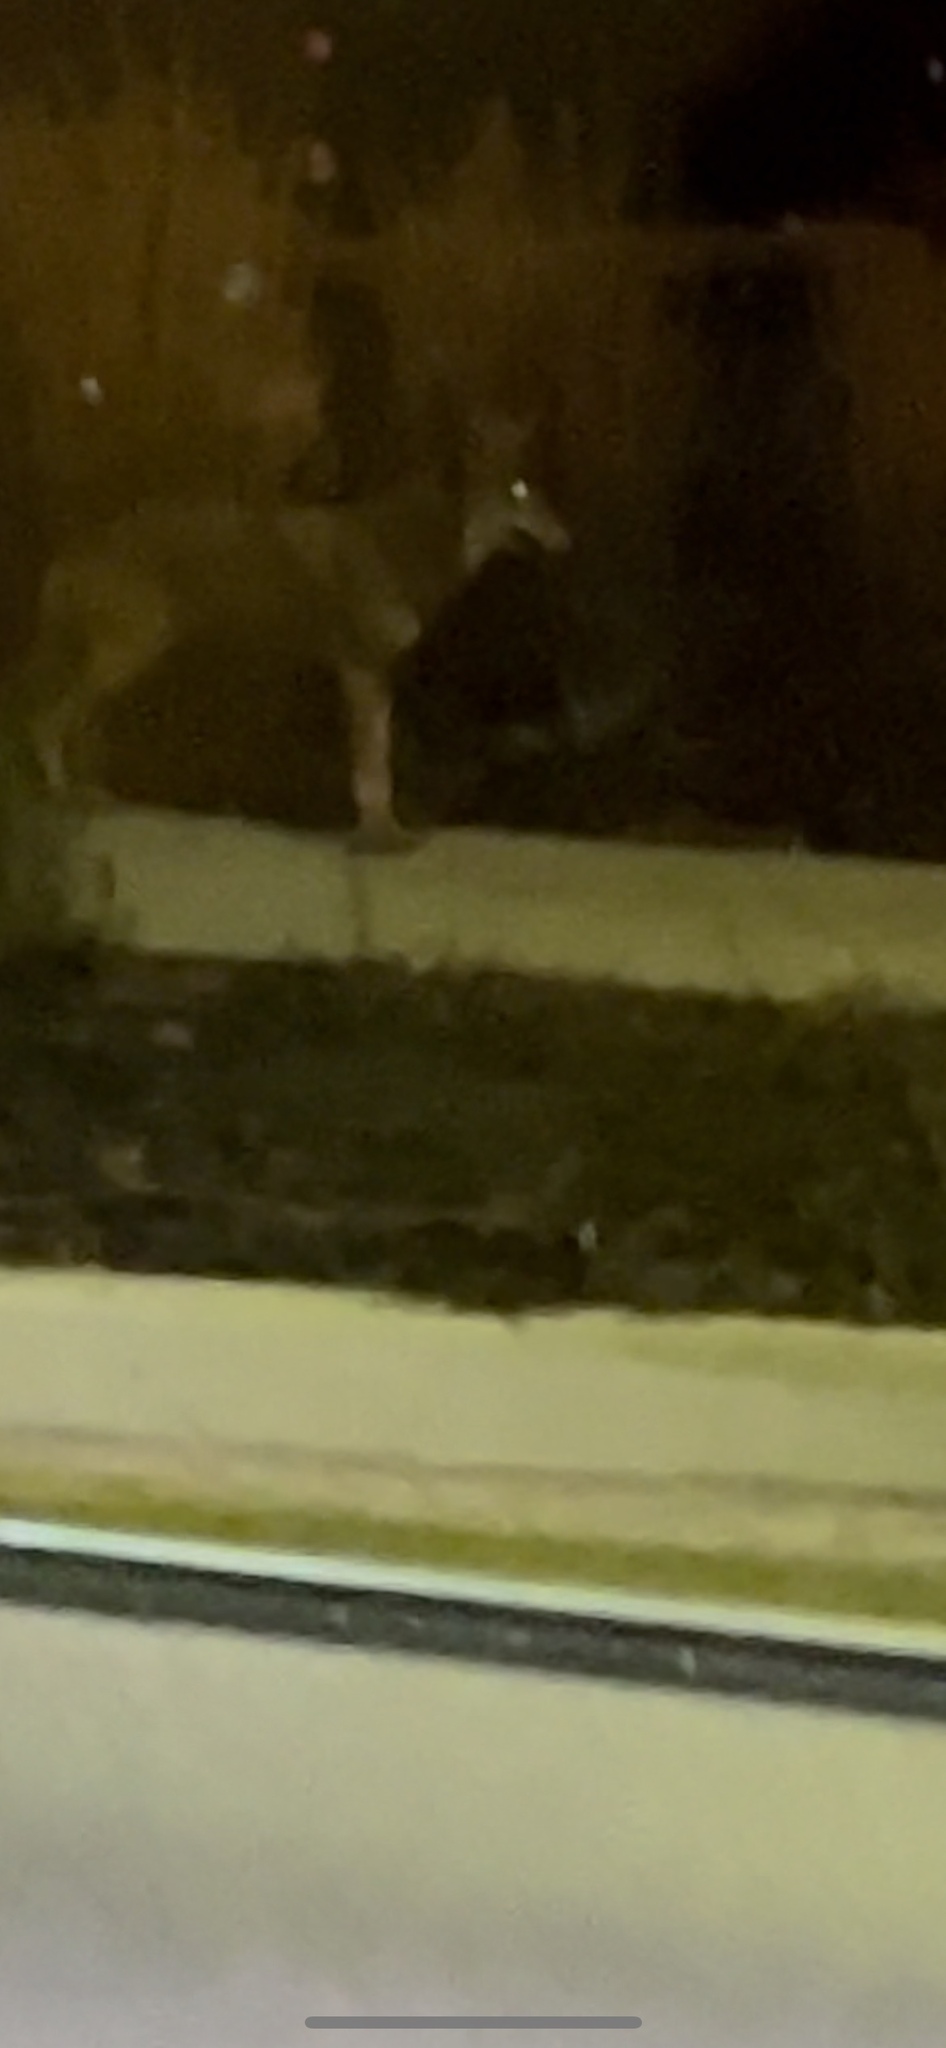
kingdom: Animalia
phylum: Chordata
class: Mammalia
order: Carnivora
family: Canidae
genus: Canis
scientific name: Canis latrans
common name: Coyote
